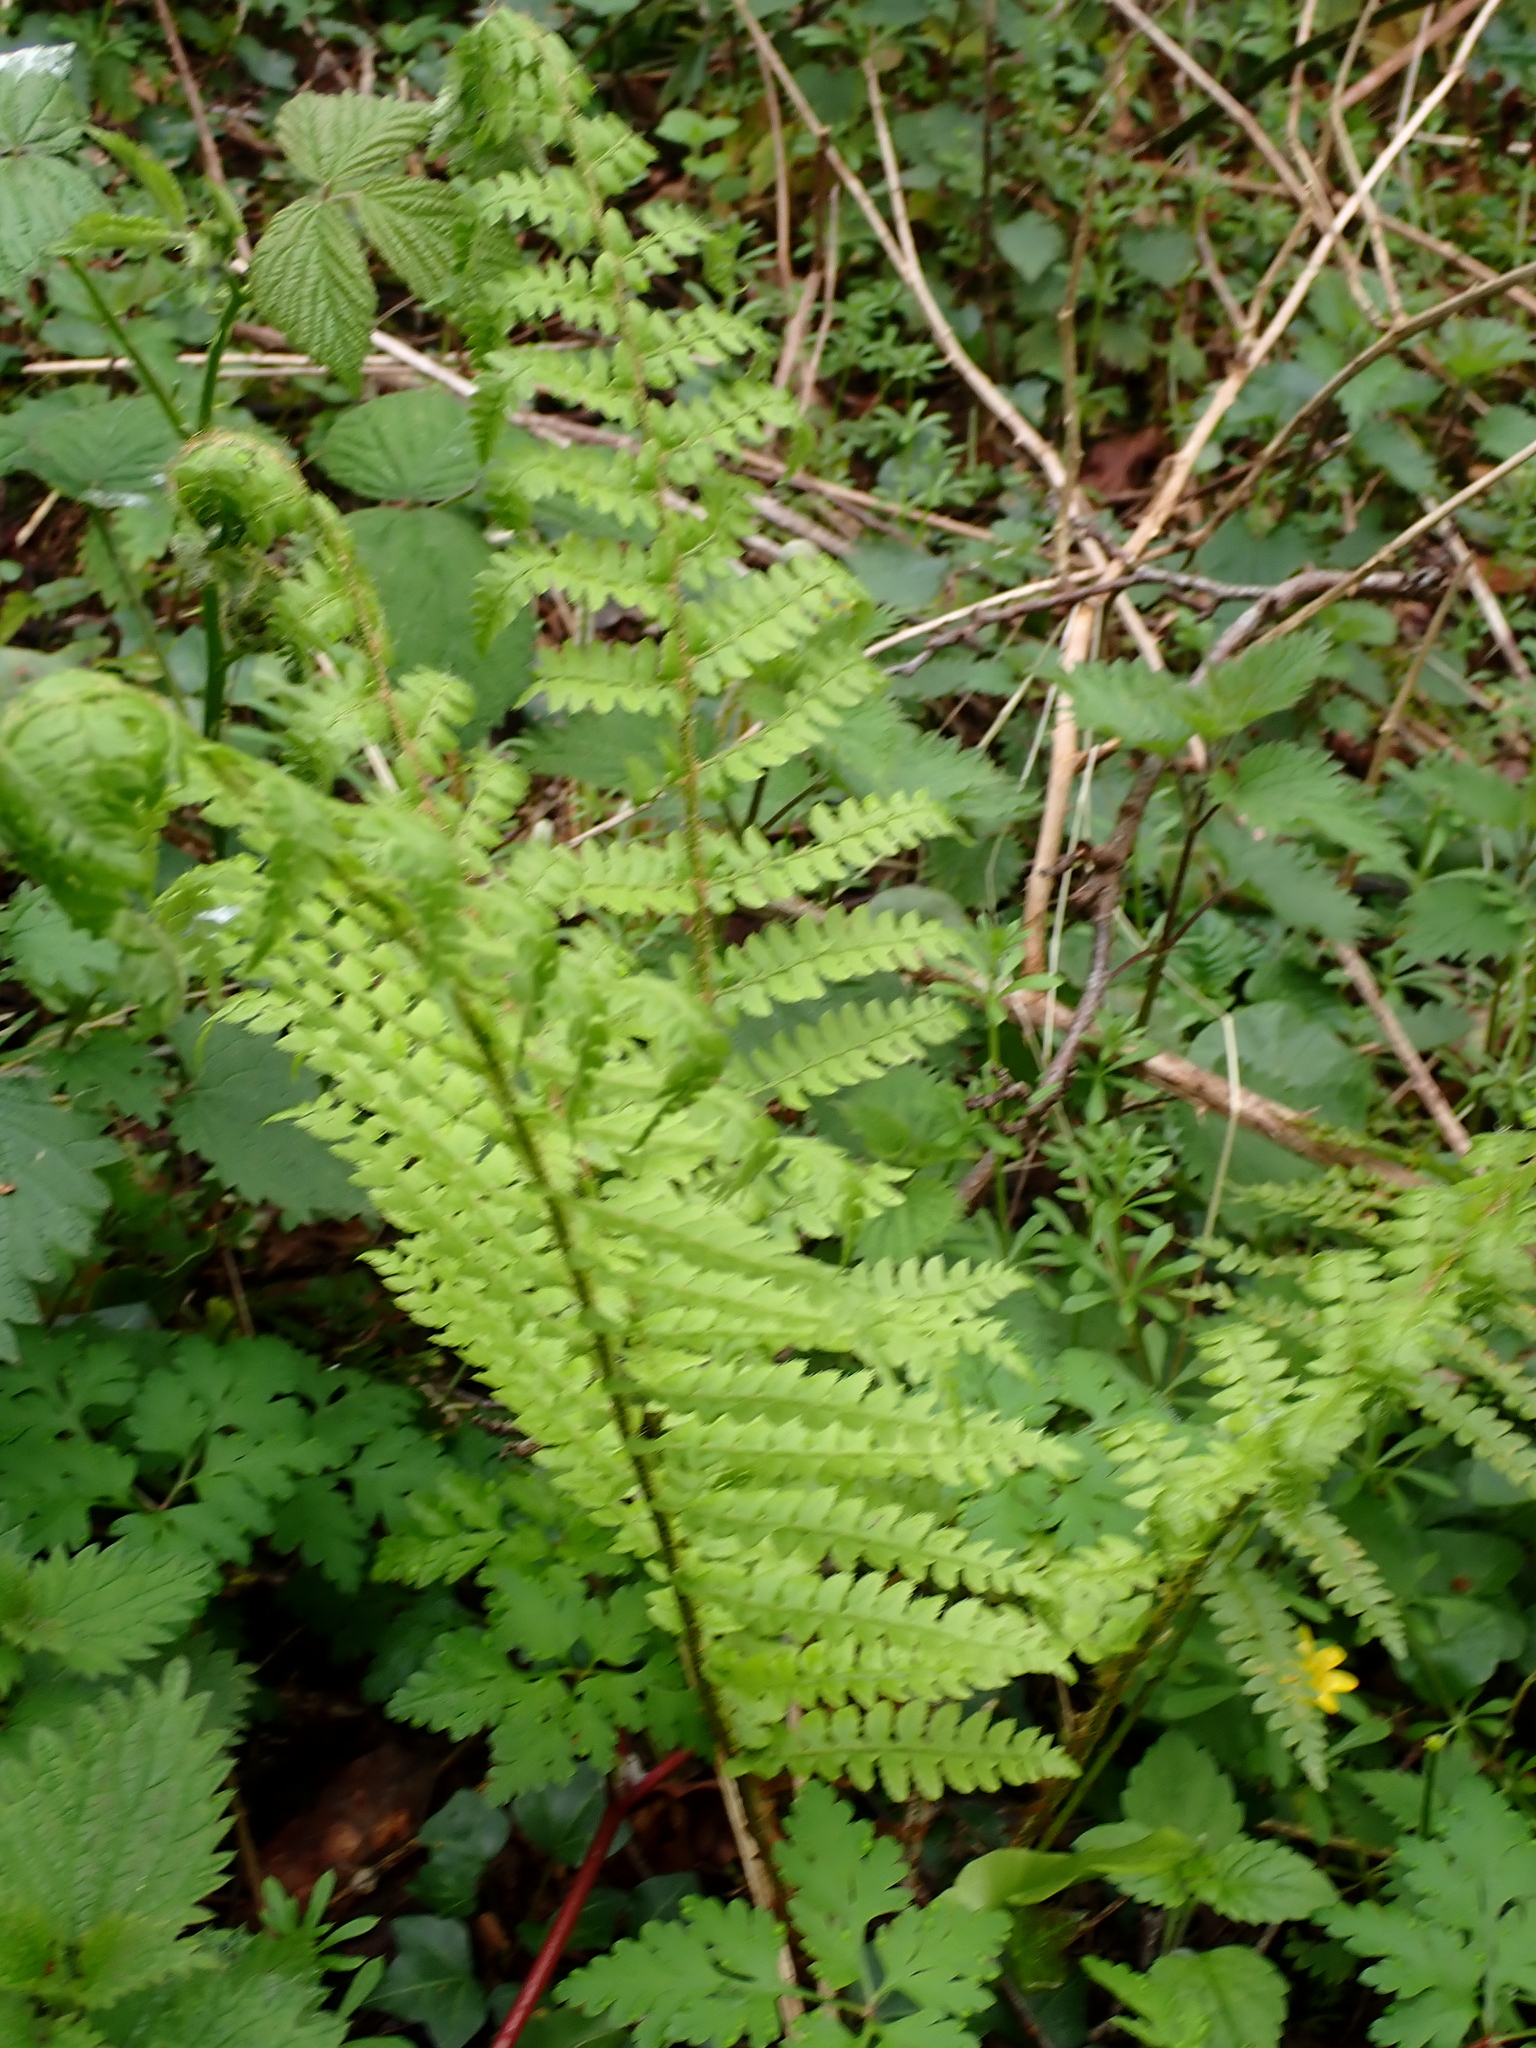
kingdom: Plantae
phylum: Tracheophyta
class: Polypodiopsida
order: Polypodiales
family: Dryopteridaceae
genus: Polystichum
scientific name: Polystichum setiferum
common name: Soft shield-fern
